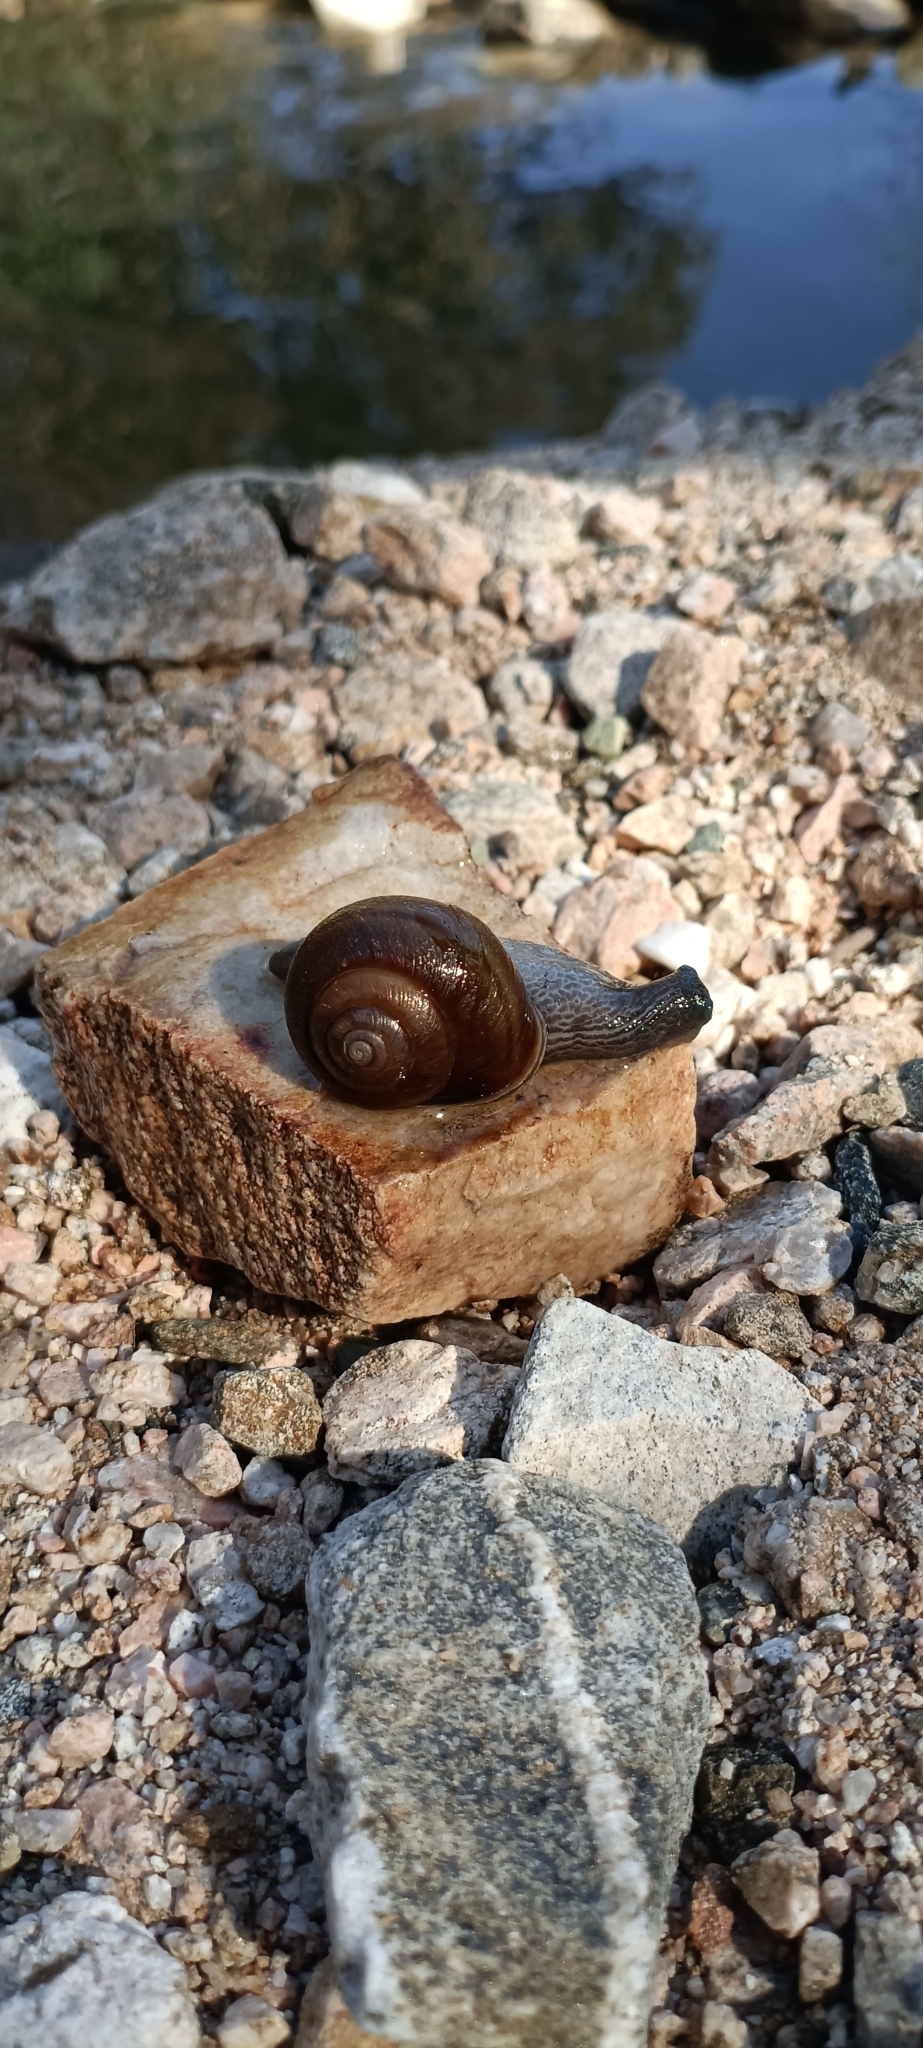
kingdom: Animalia
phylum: Mollusca
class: Gastropoda
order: Stylommatophora
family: Xanthonychidae
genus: Helminthoglypta
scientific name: Helminthoglypta tudiculata
